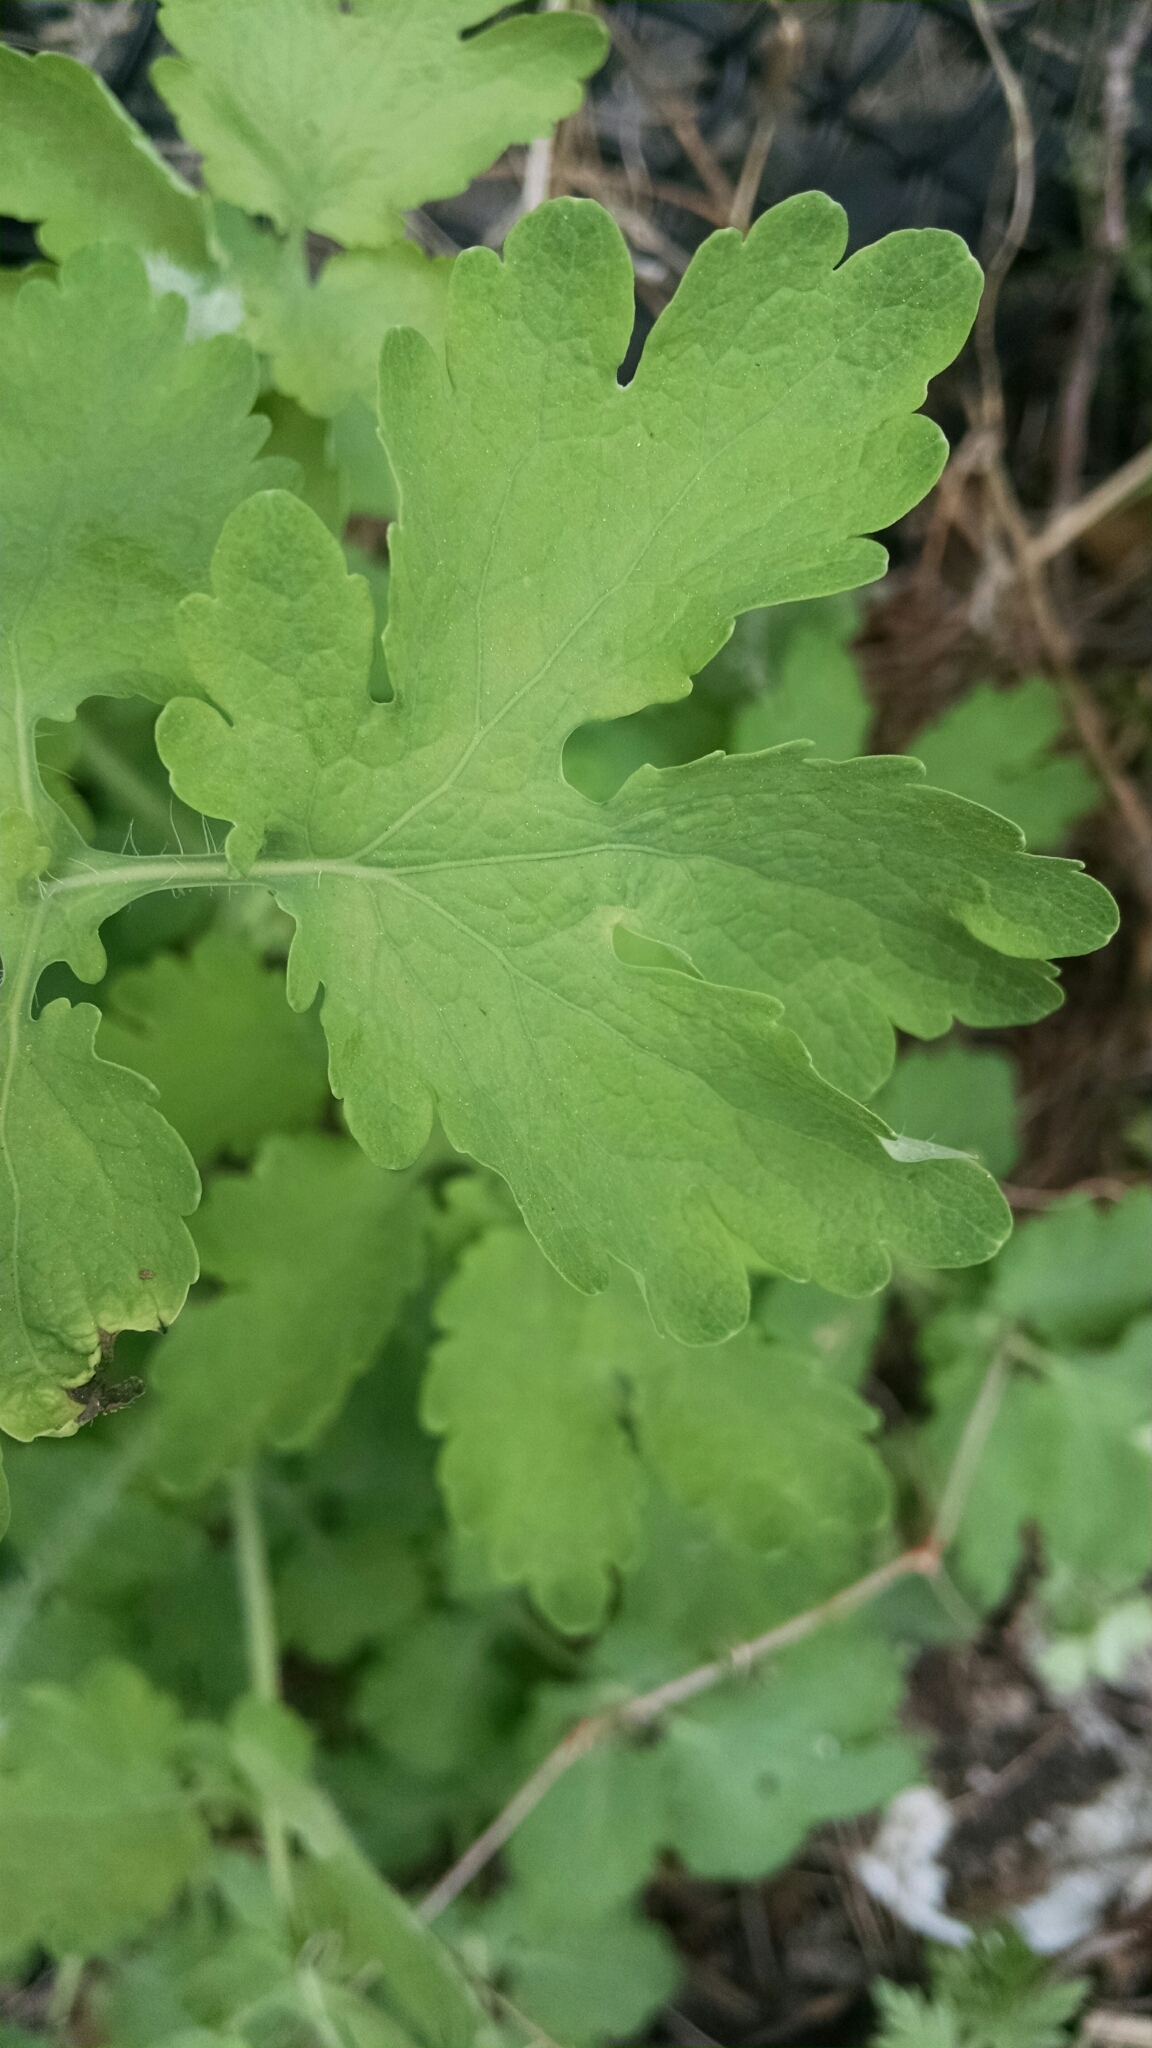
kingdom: Plantae
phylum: Tracheophyta
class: Magnoliopsida
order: Ranunculales
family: Papaveraceae
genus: Chelidonium
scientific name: Chelidonium majus
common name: Greater celandine
